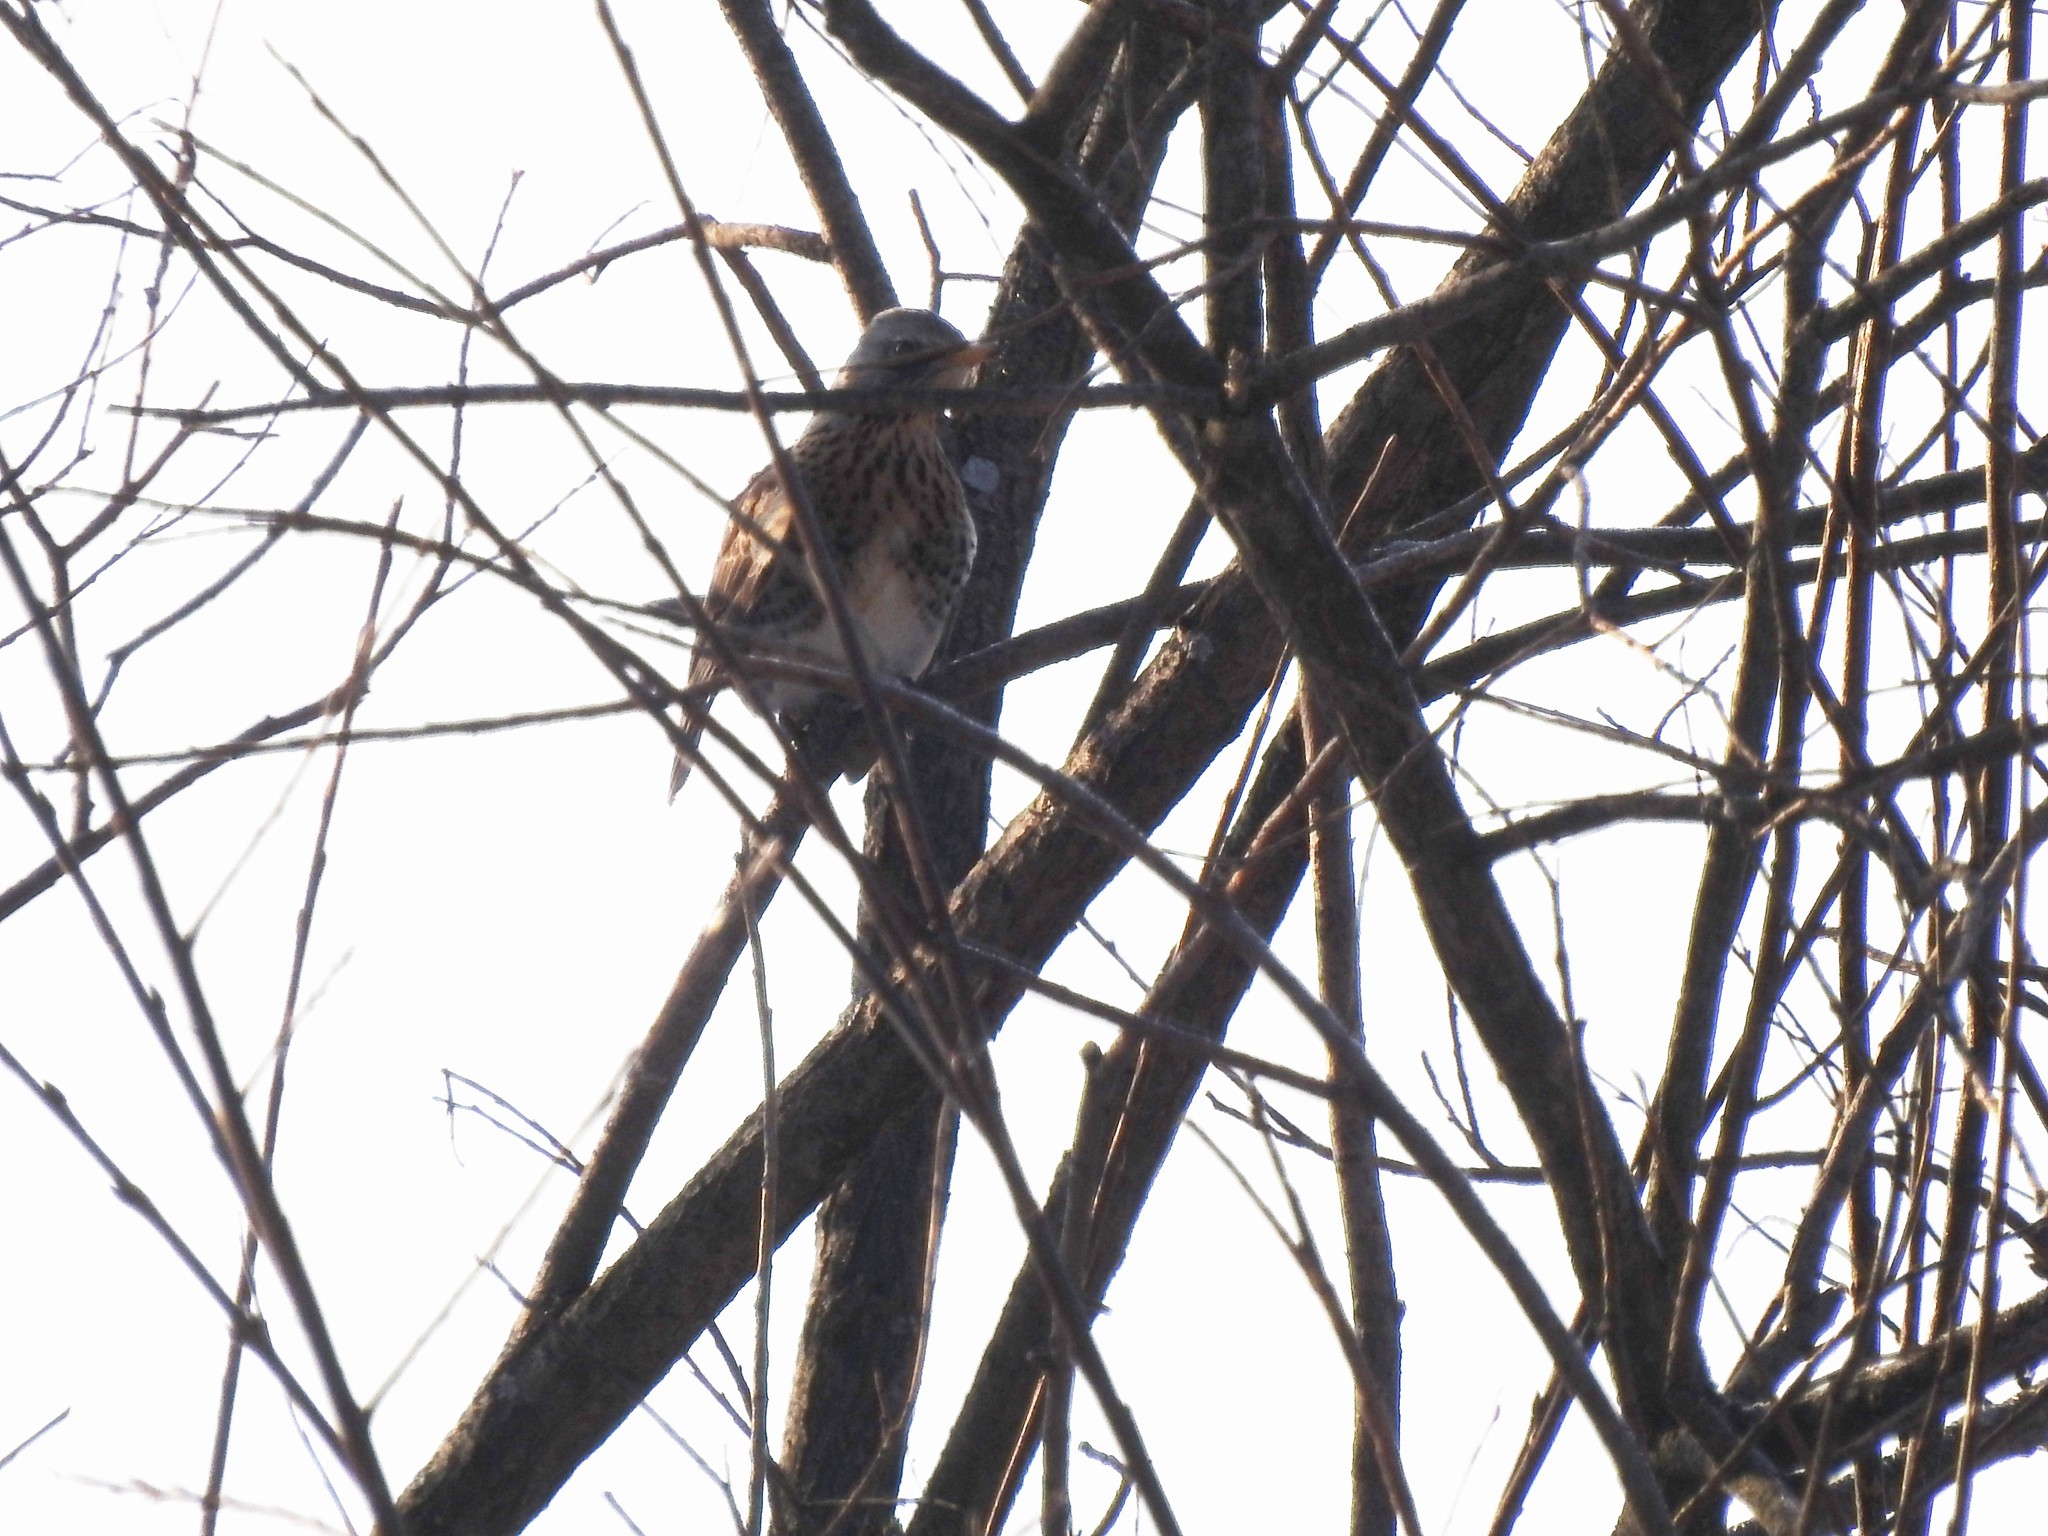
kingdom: Animalia
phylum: Chordata
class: Aves
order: Passeriformes
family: Turdidae
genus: Turdus
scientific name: Turdus pilaris
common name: Fieldfare
